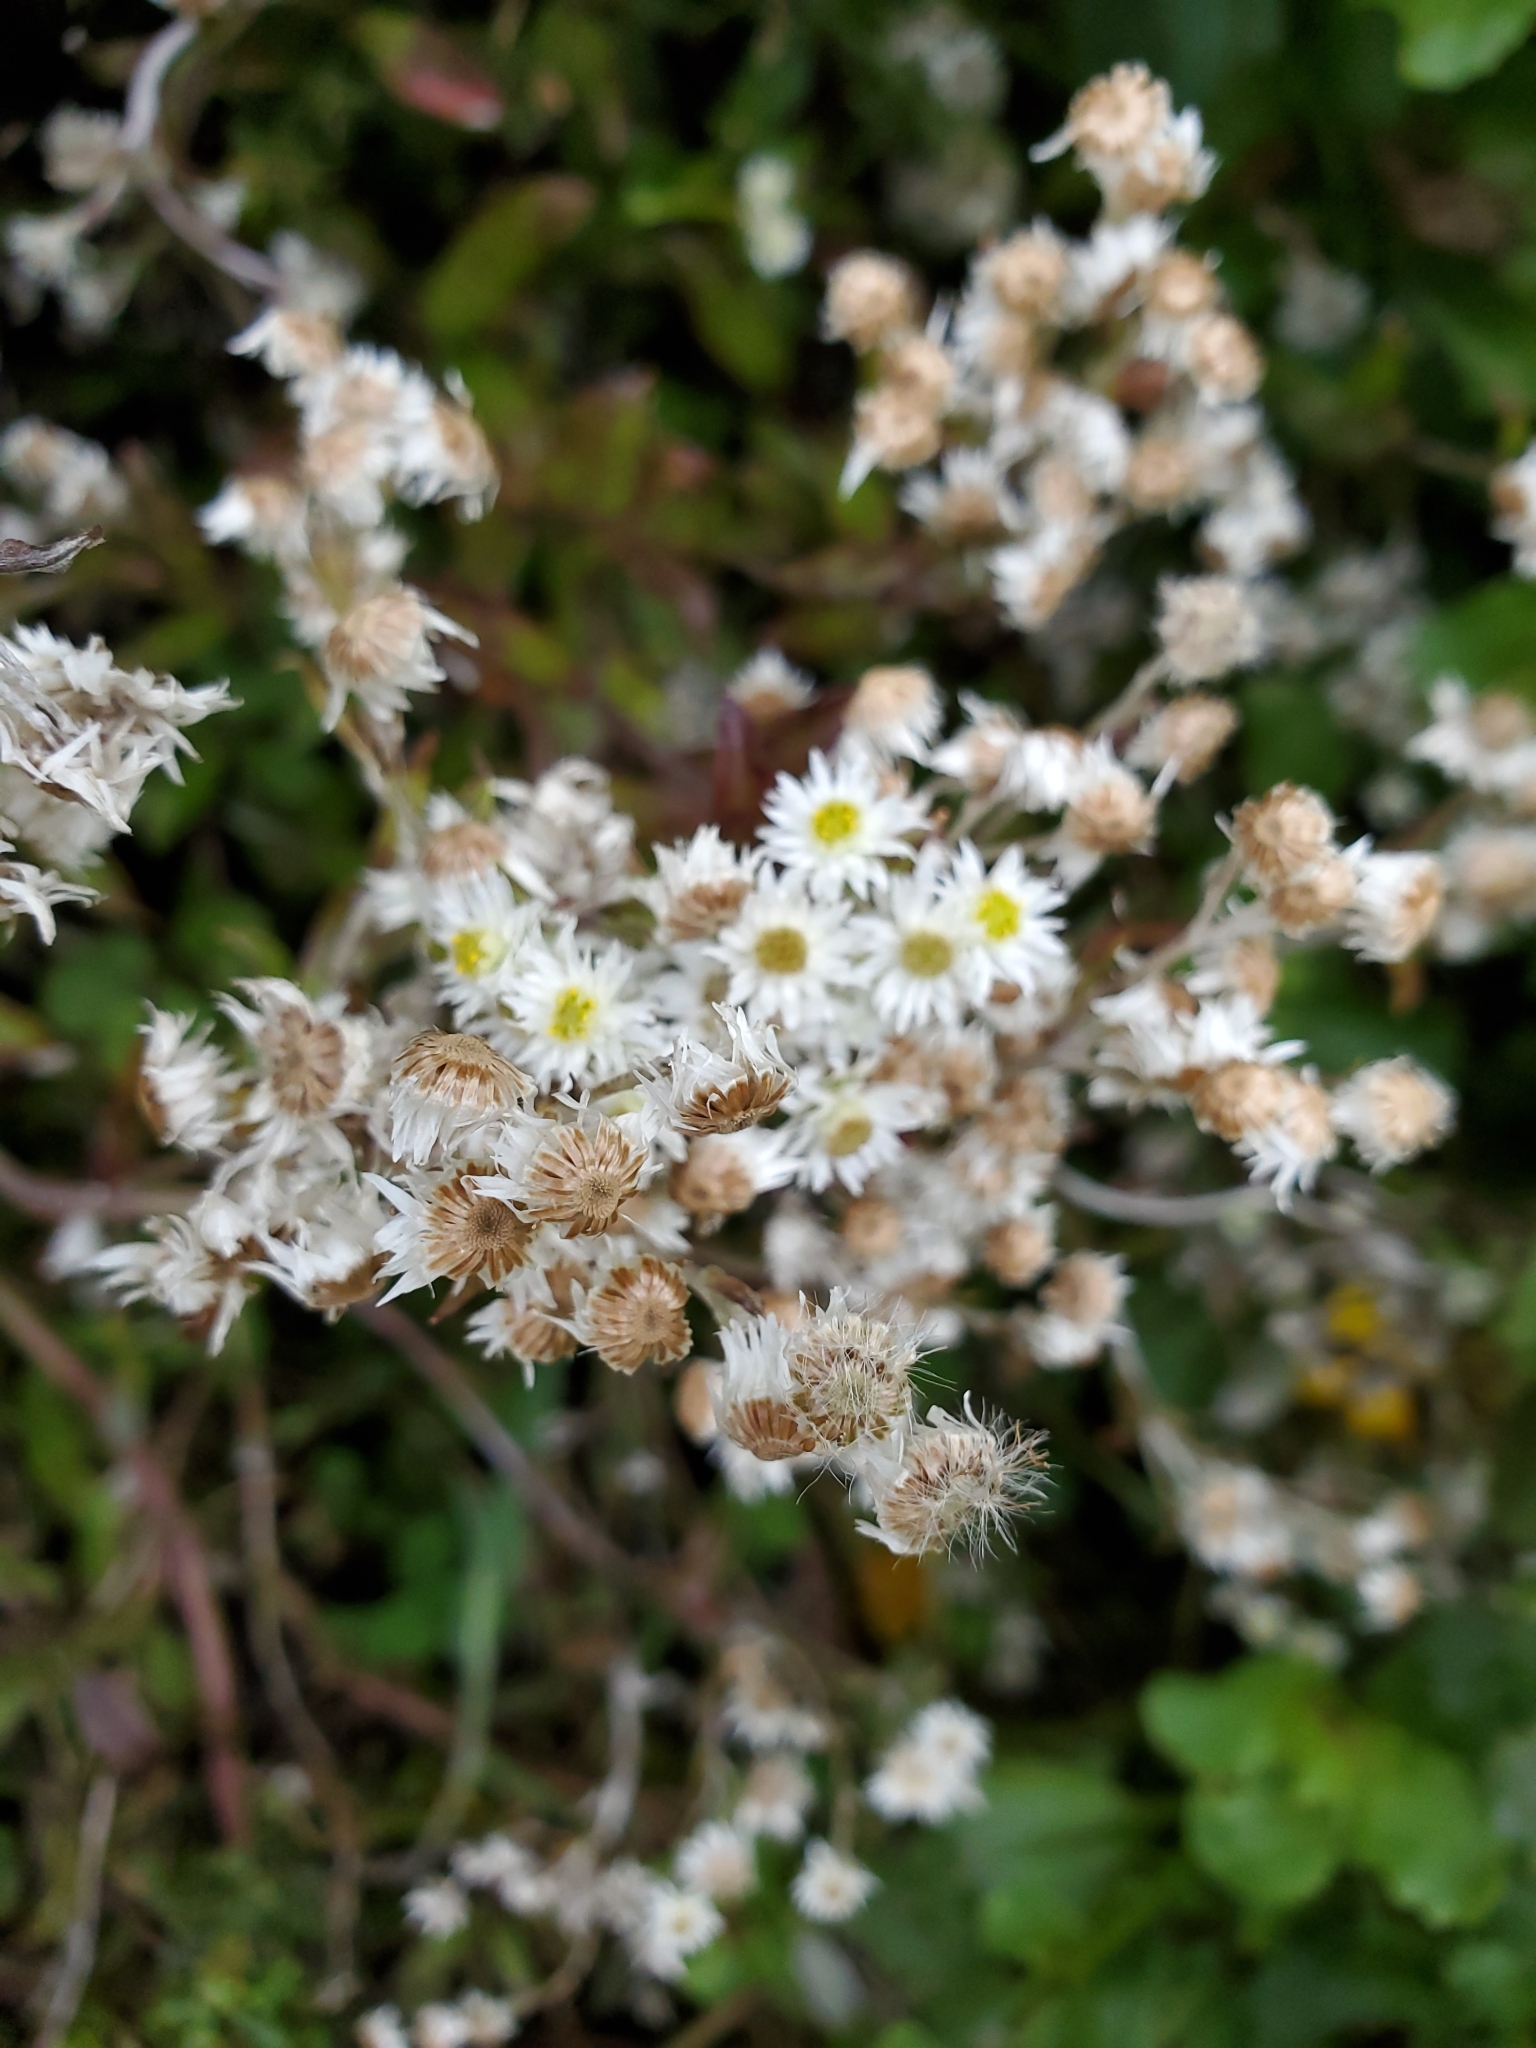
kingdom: Plantae
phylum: Tracheophyta
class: Magnoliopsida
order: Asterales
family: Asteraceae
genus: Anaphalioides
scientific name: Anaphalioides trinervis
